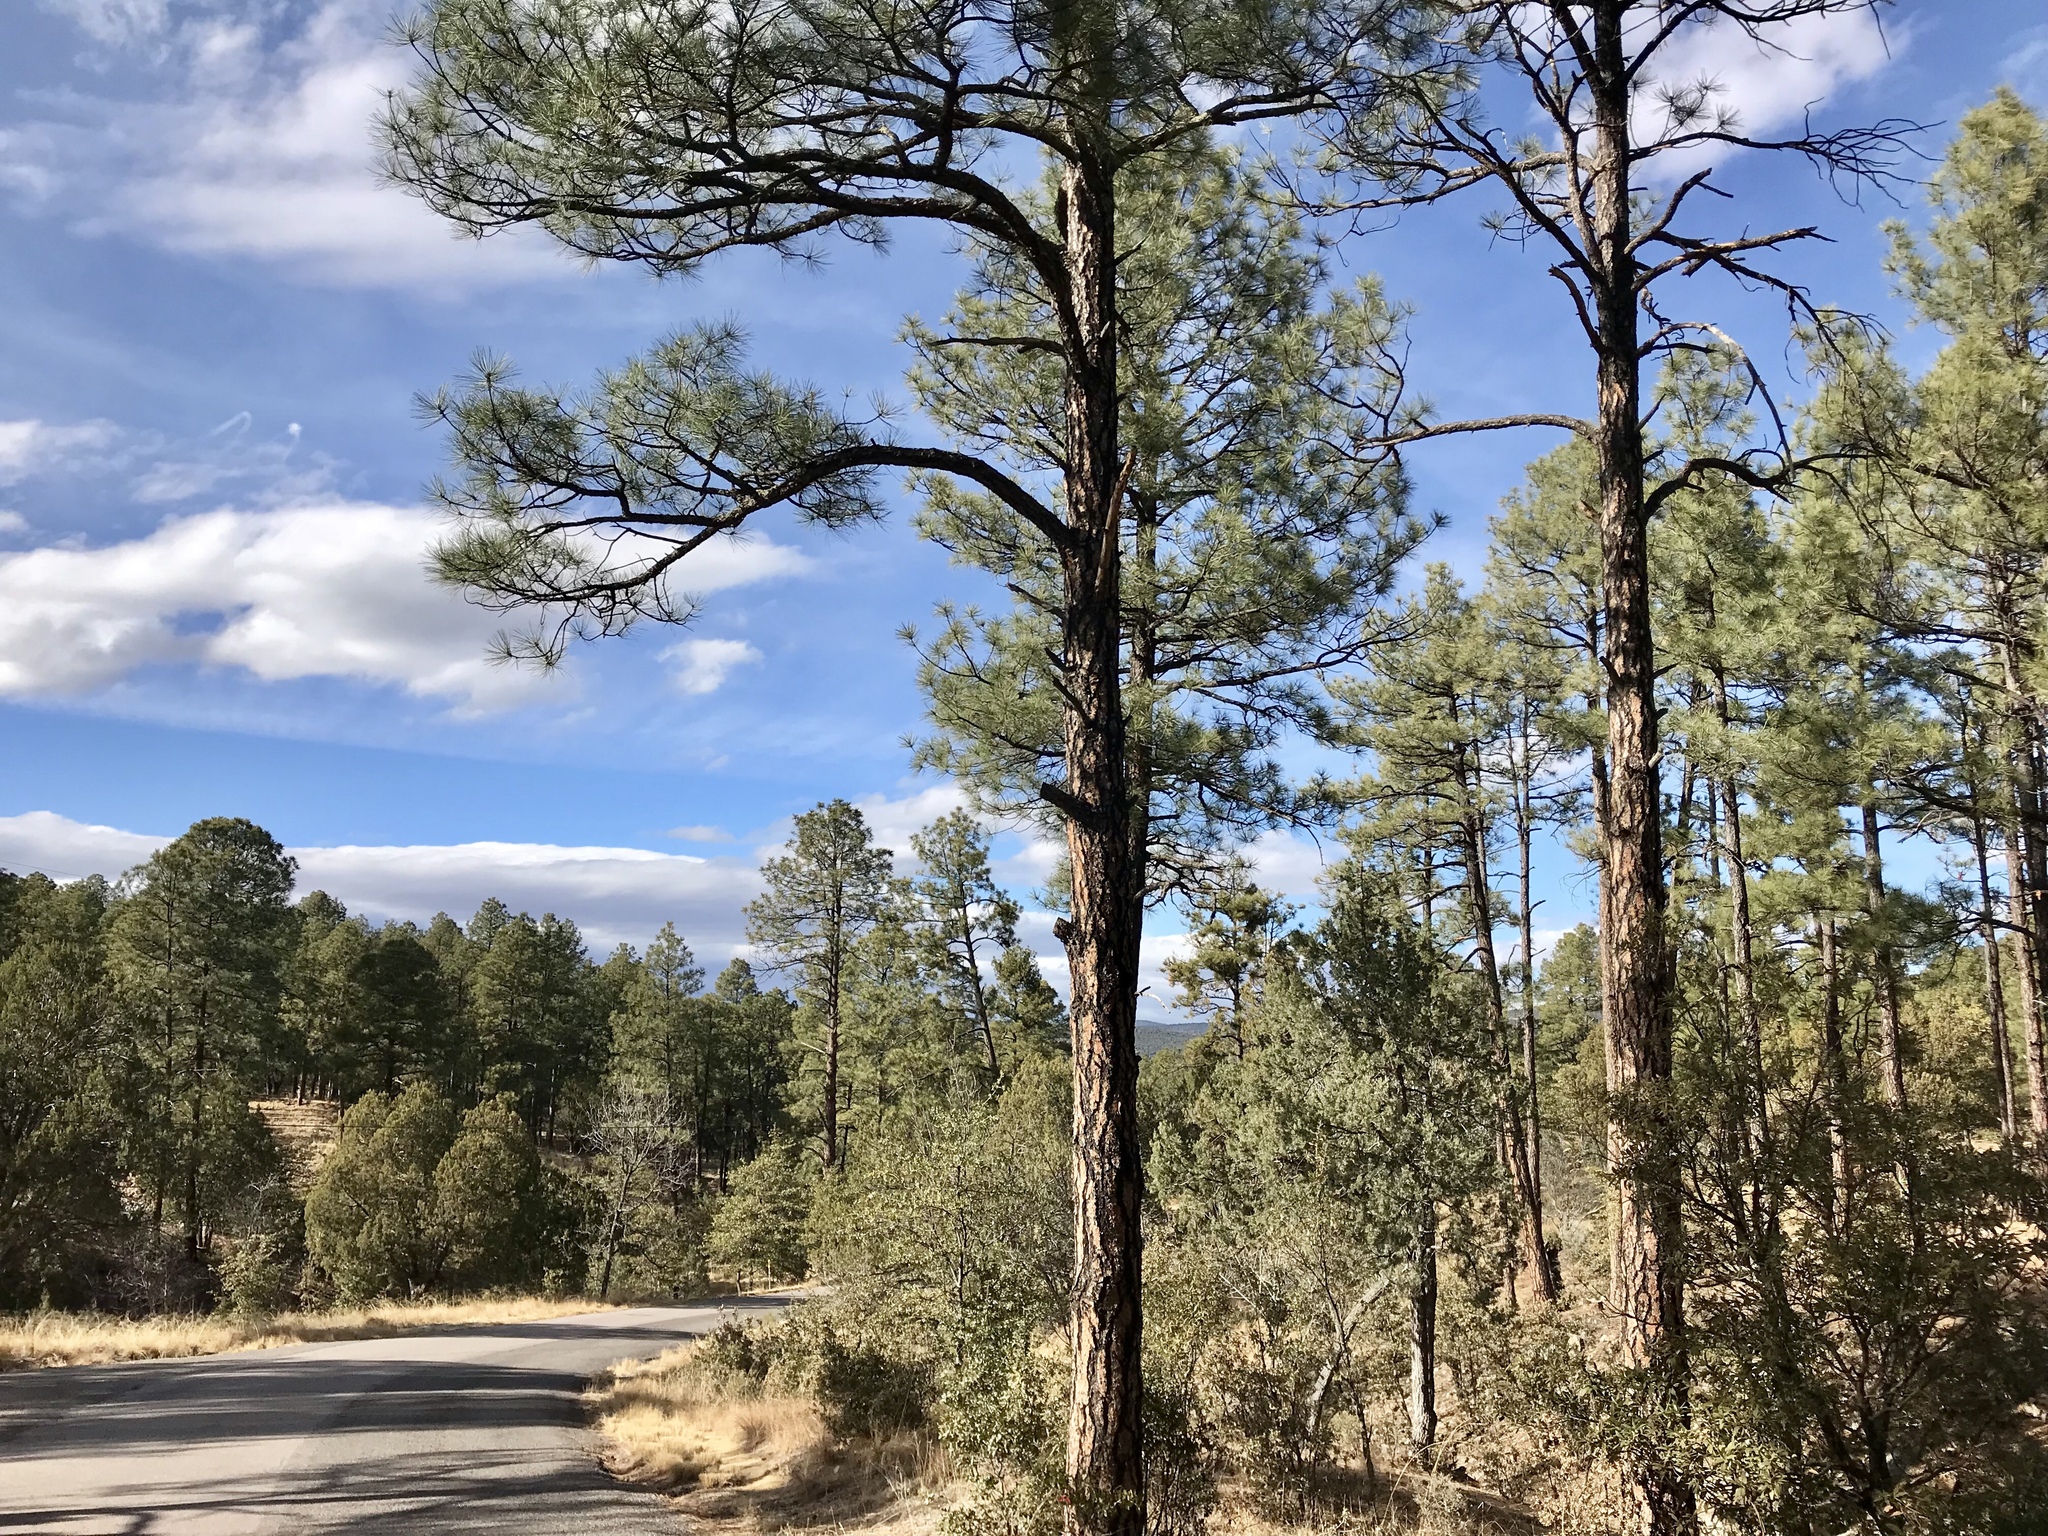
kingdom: Plantae
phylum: Tracheophyta
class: Pinopsida
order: Pinales
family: Pinaceae
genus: Pinus
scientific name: Pinus ponderosa
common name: Western yellow-pine
